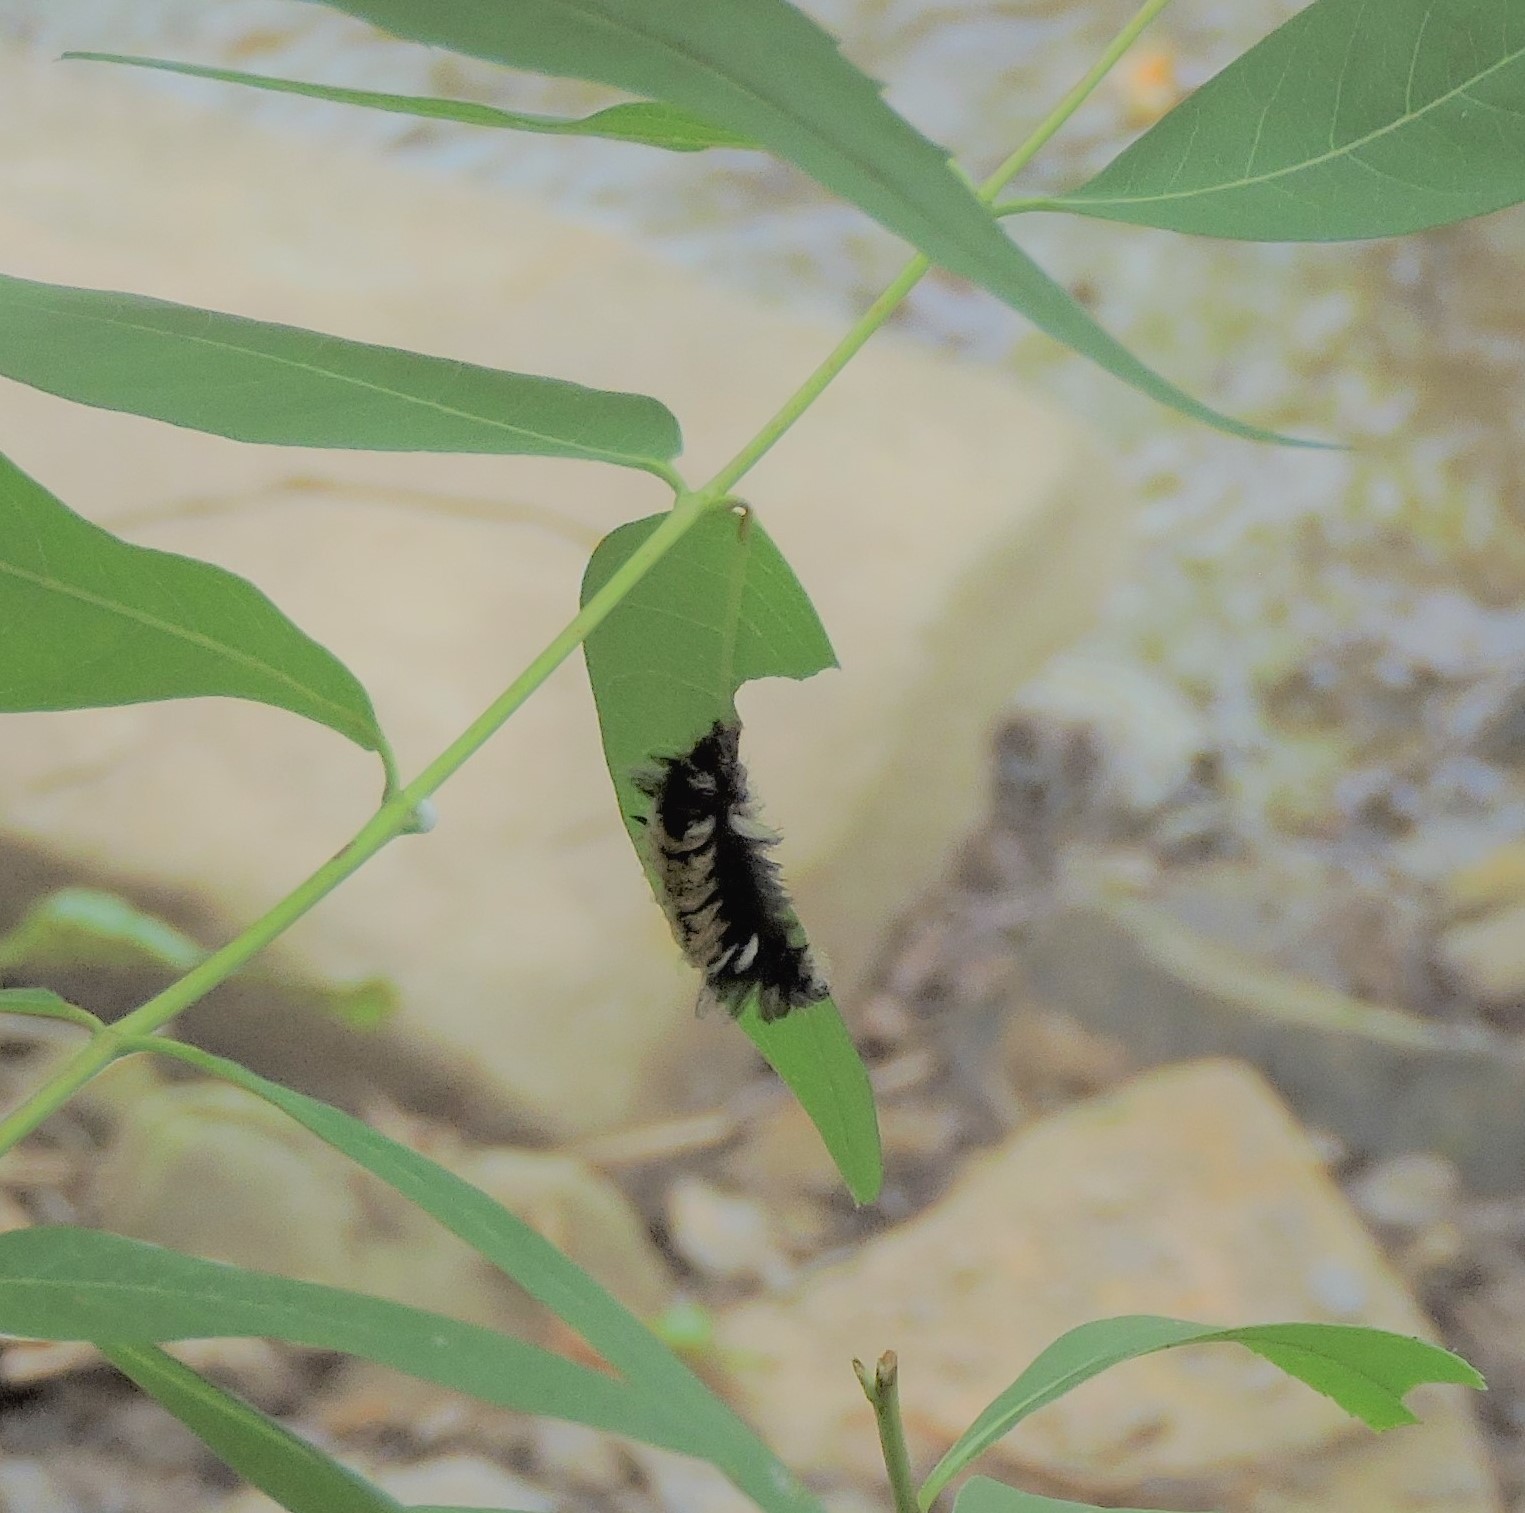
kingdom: Animalia
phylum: Arthropoda
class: Insecta
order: Lepidoptera
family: Erebidae
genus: Euchaetes
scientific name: Euchaetes egle
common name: Milkweed tussock moth
